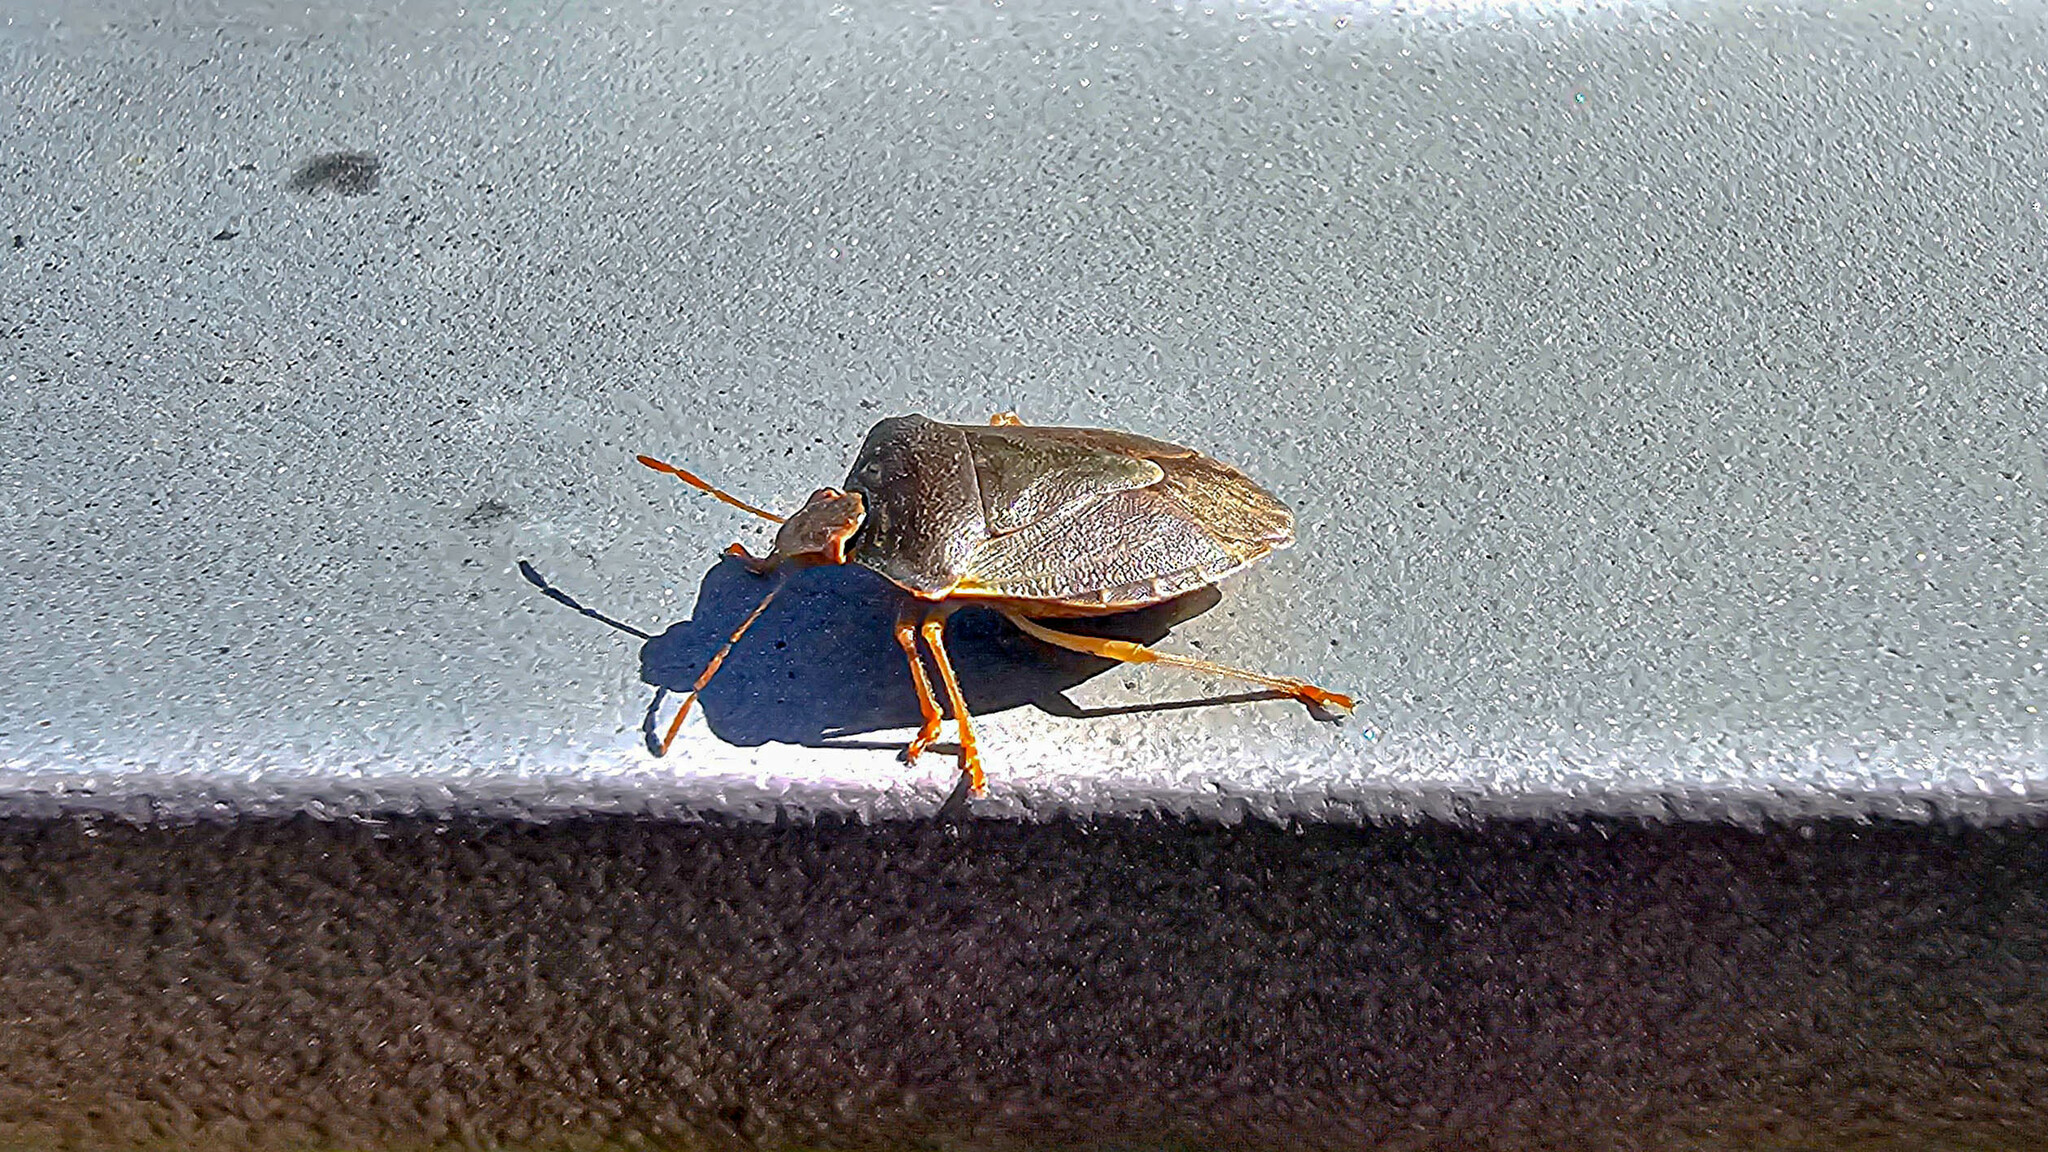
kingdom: Animalia
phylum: Arthropoda
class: Insecta
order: Hemiptera
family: Pentatomidae
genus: Palomena
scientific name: Palomena prasina
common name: Green shieldbug
